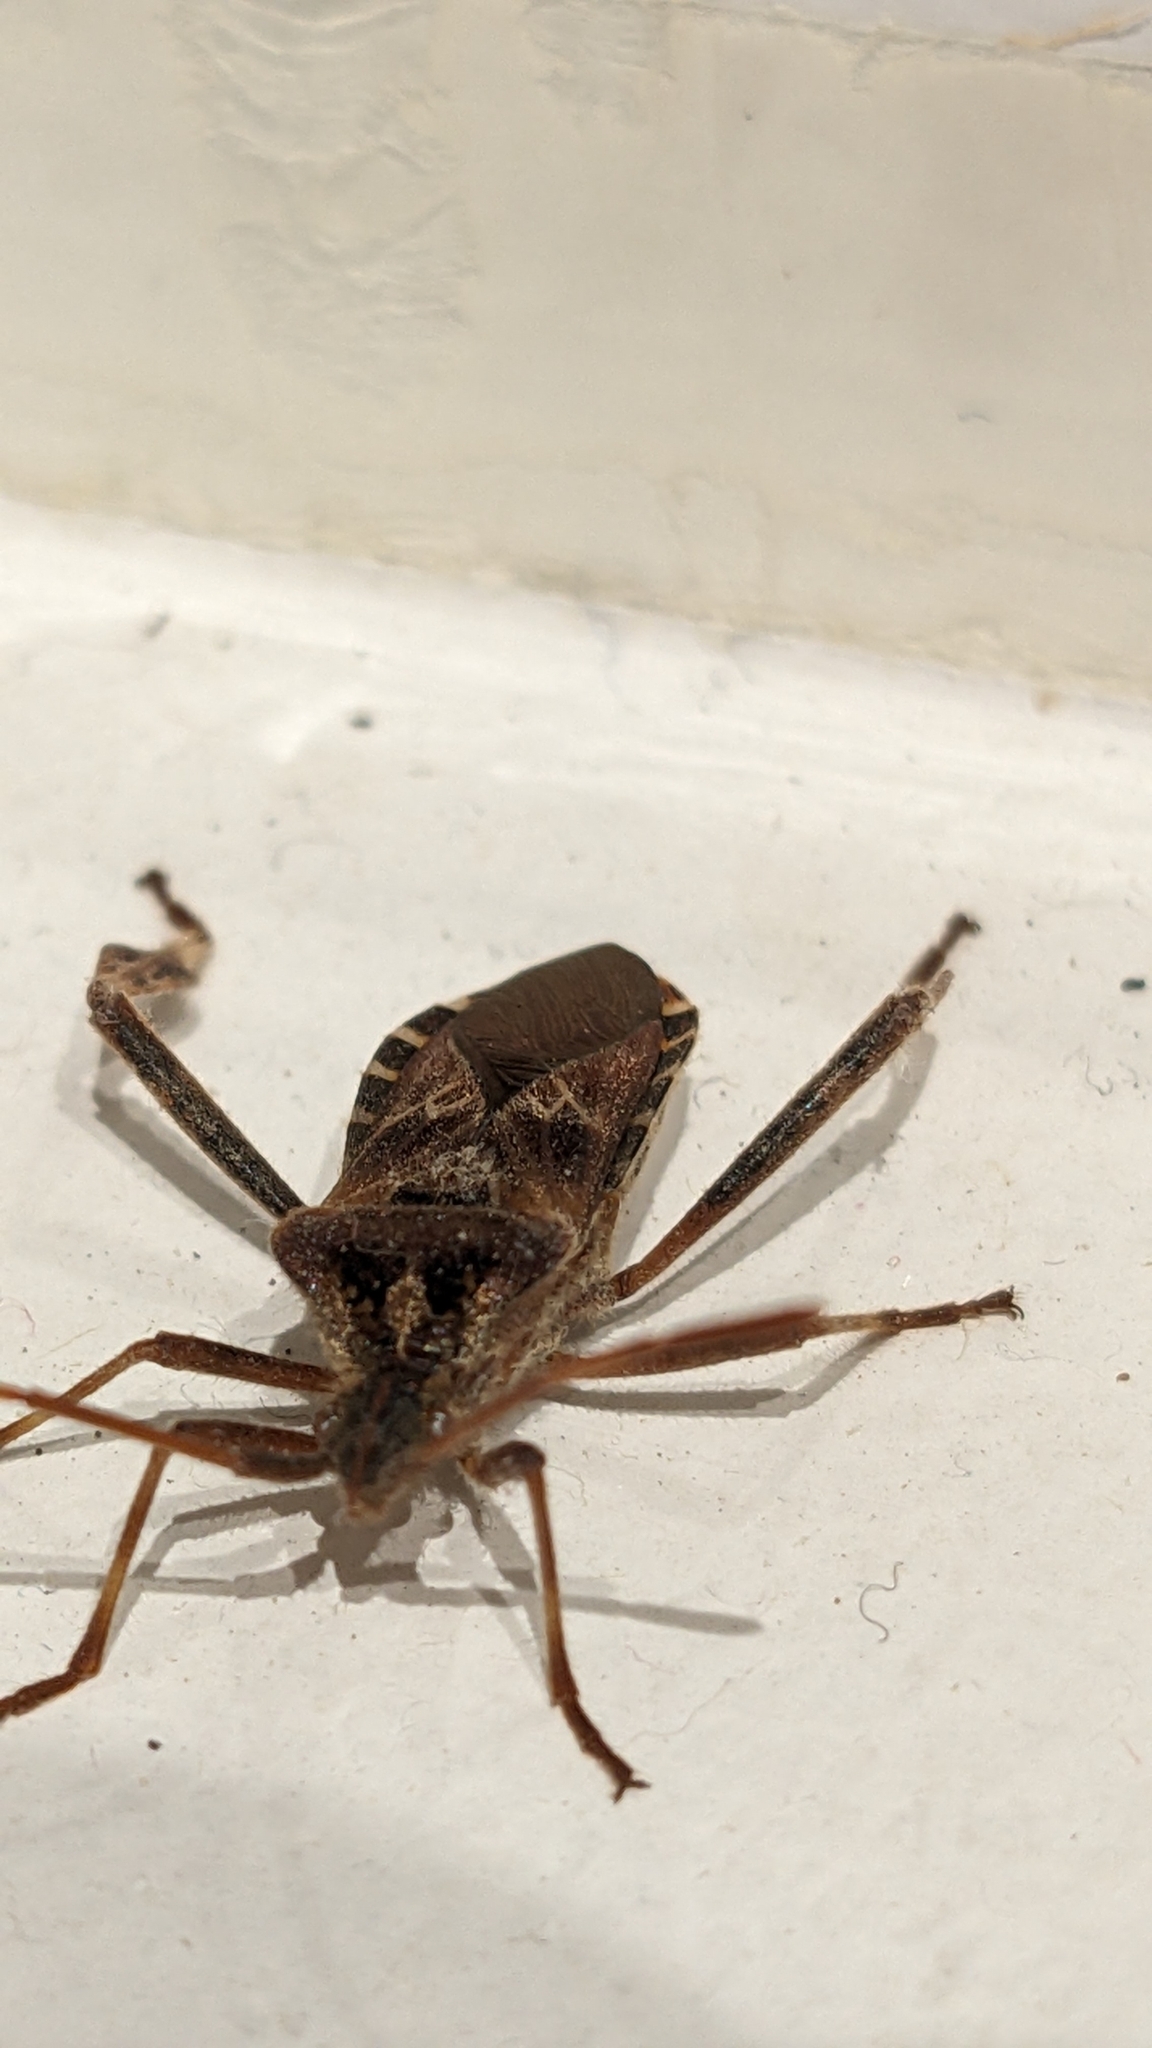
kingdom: Animalia
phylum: Arthropoda
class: Insecta
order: Hemiptera
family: Coreidae
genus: Leptoglossus
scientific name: Leptoglossus occidentalis
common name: Western conifer-seed bug
